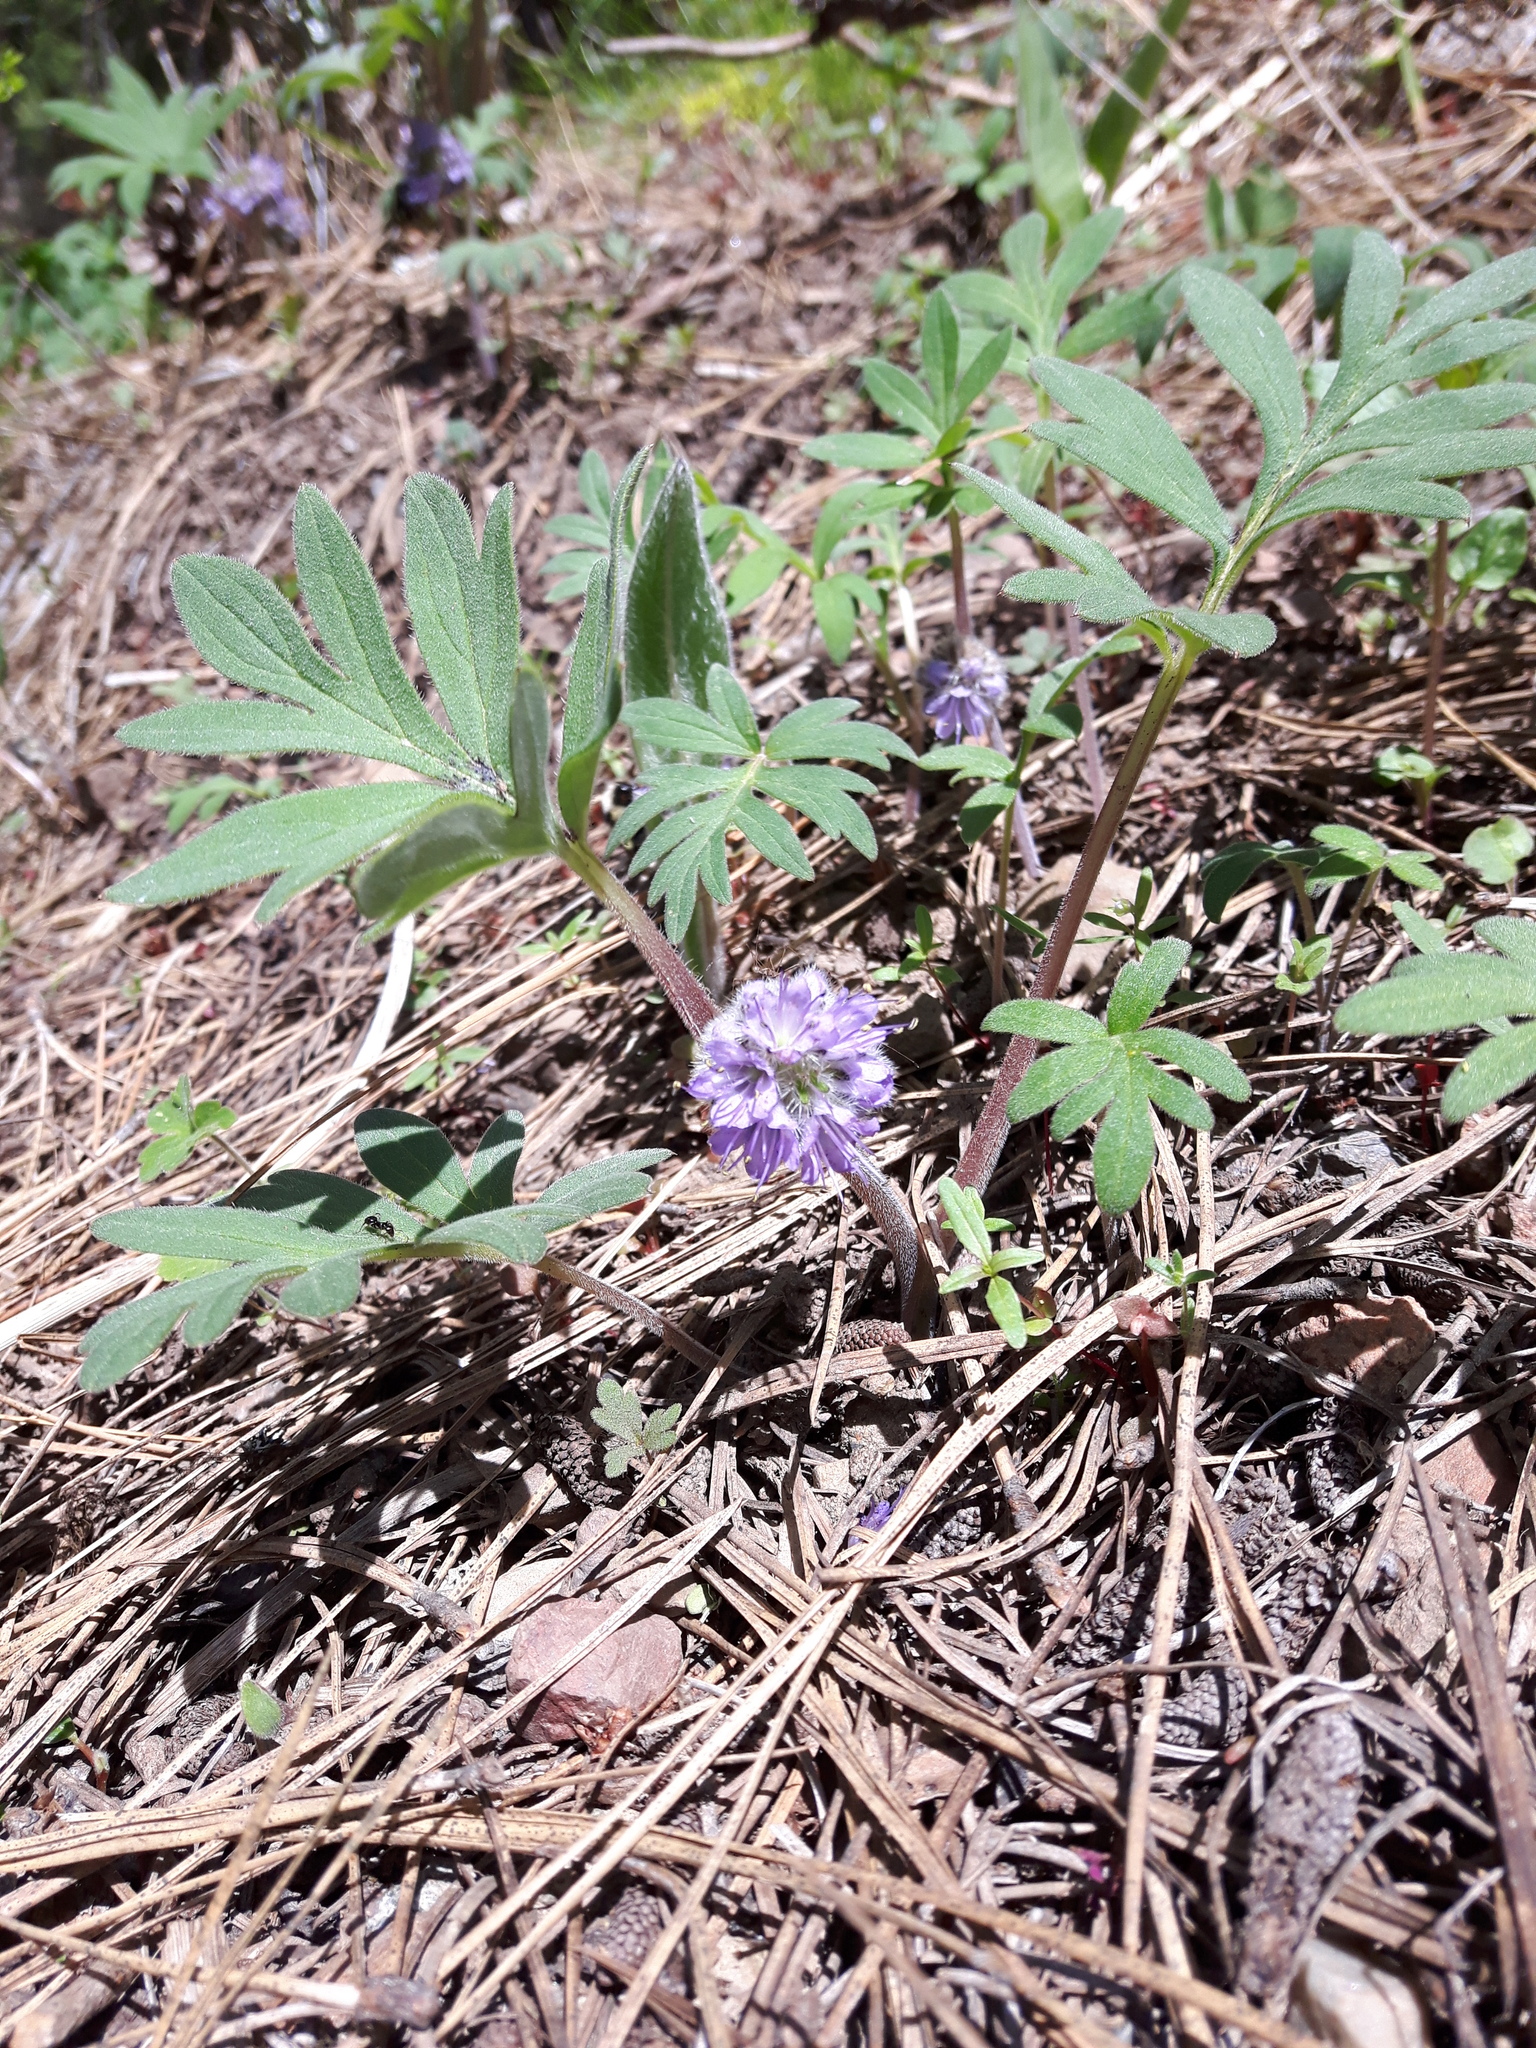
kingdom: Plantae
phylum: Tracheophyta
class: Magnoliopsida
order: Boraginales
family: Hydrophyllaceae
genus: Hydrophyllum
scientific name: Hydrophyllum capitatum
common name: Woollen-breeches
